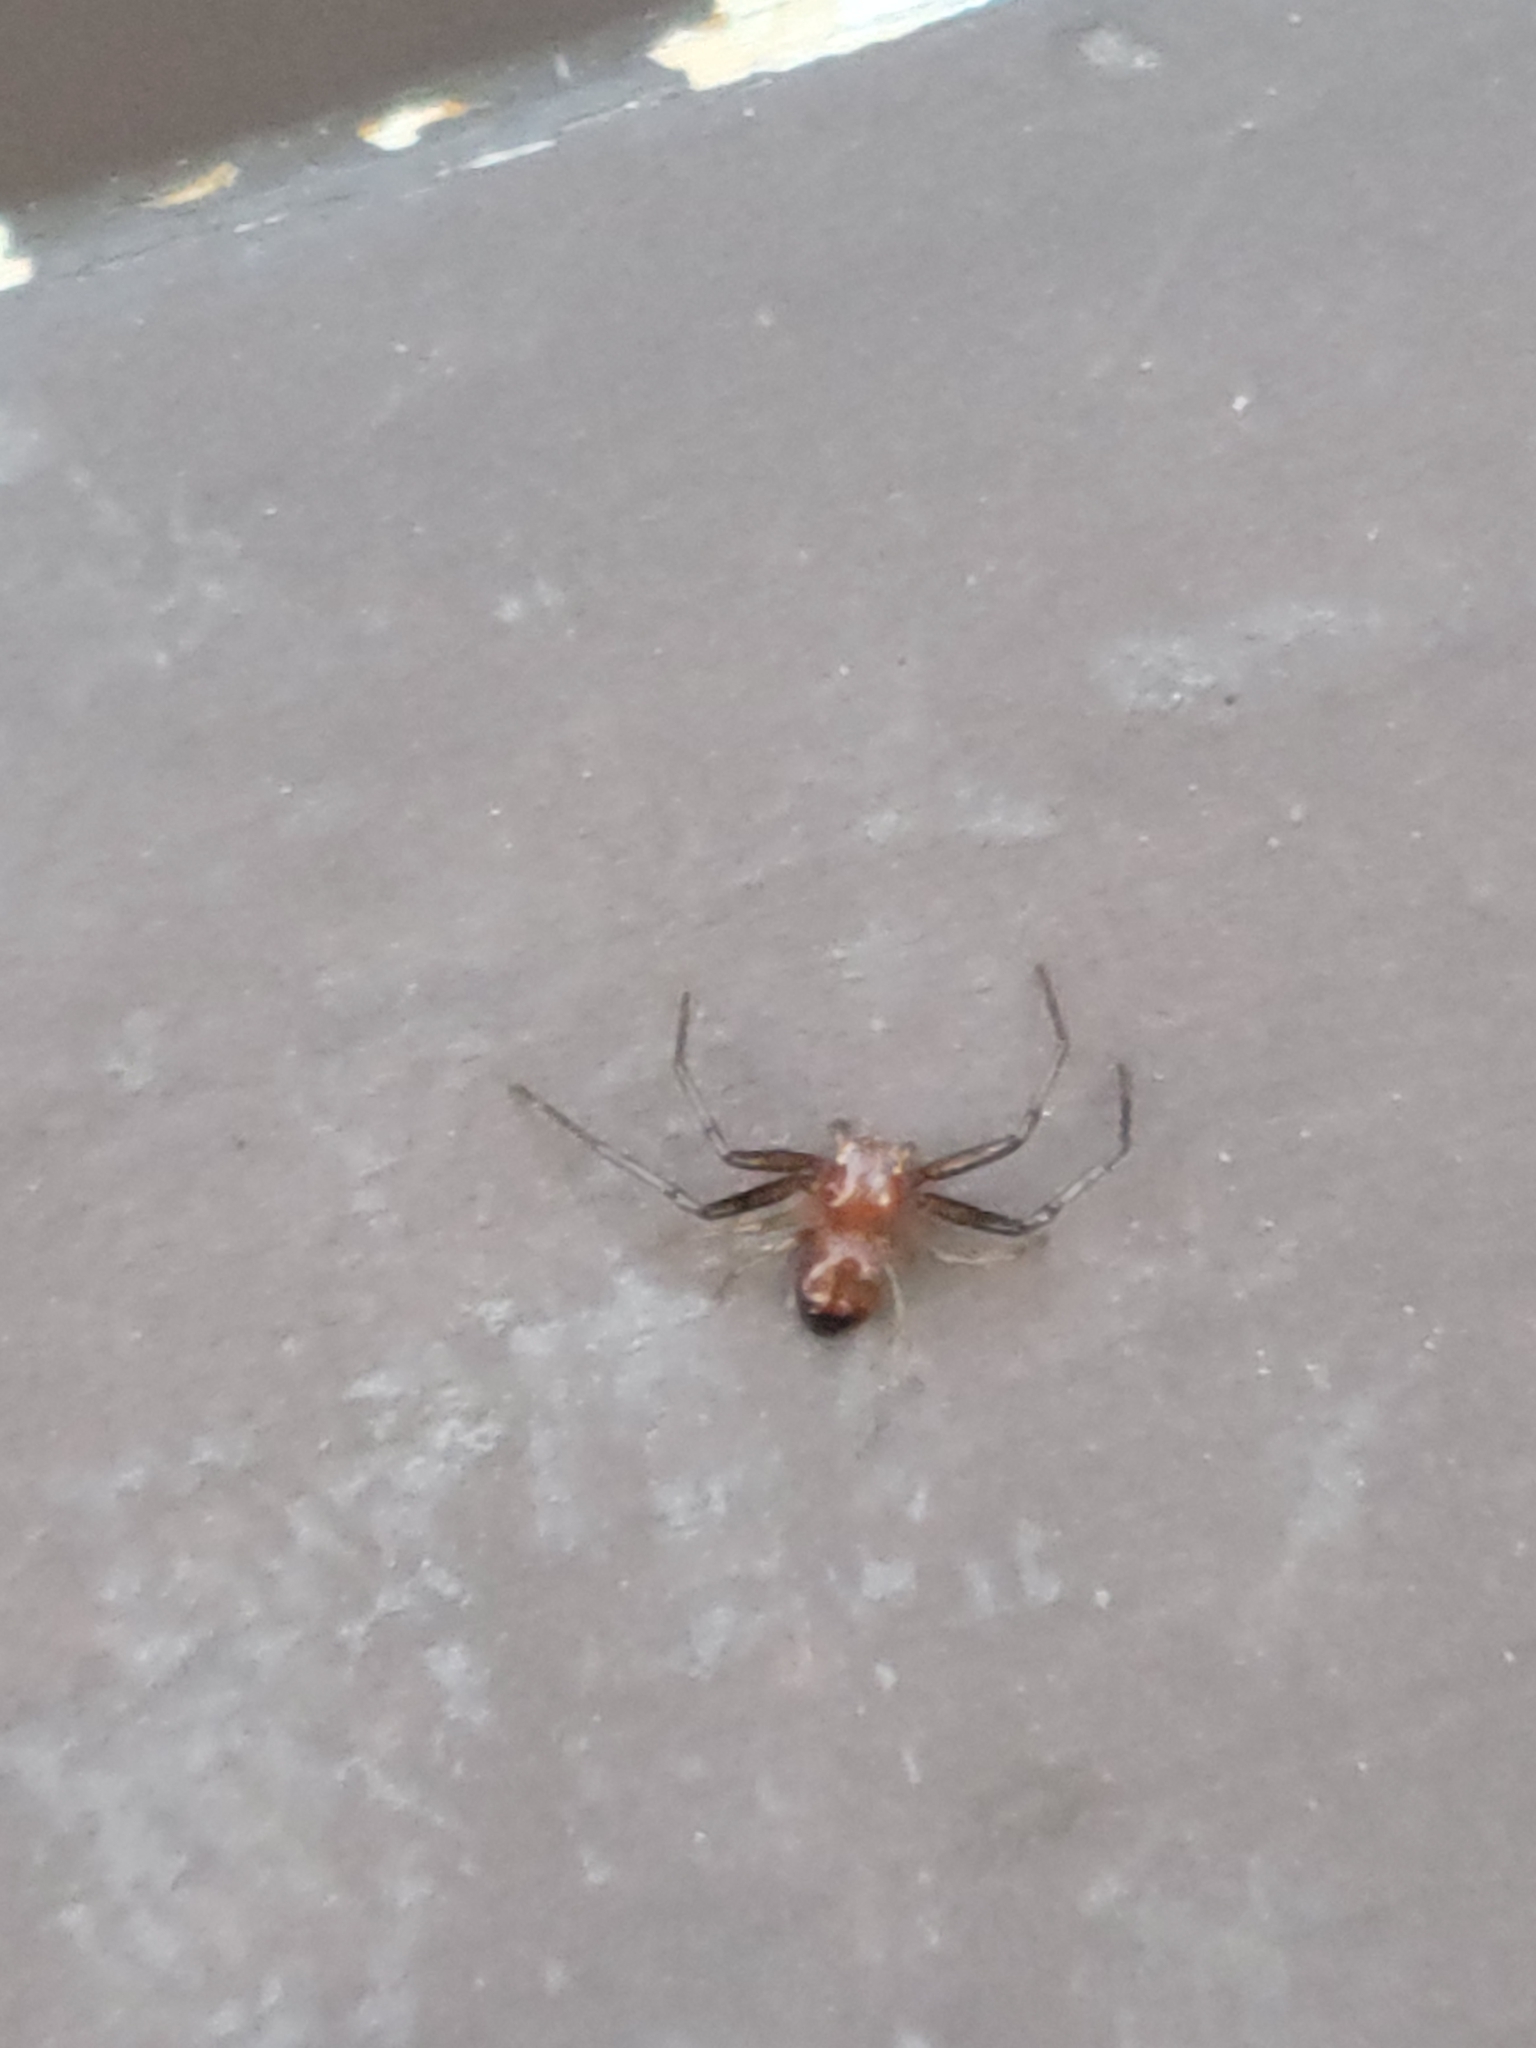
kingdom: Animalia
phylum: Arthropoda
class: Arachnida
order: Araneae
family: Thomisidae
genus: Synema
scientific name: Synema parvulum
